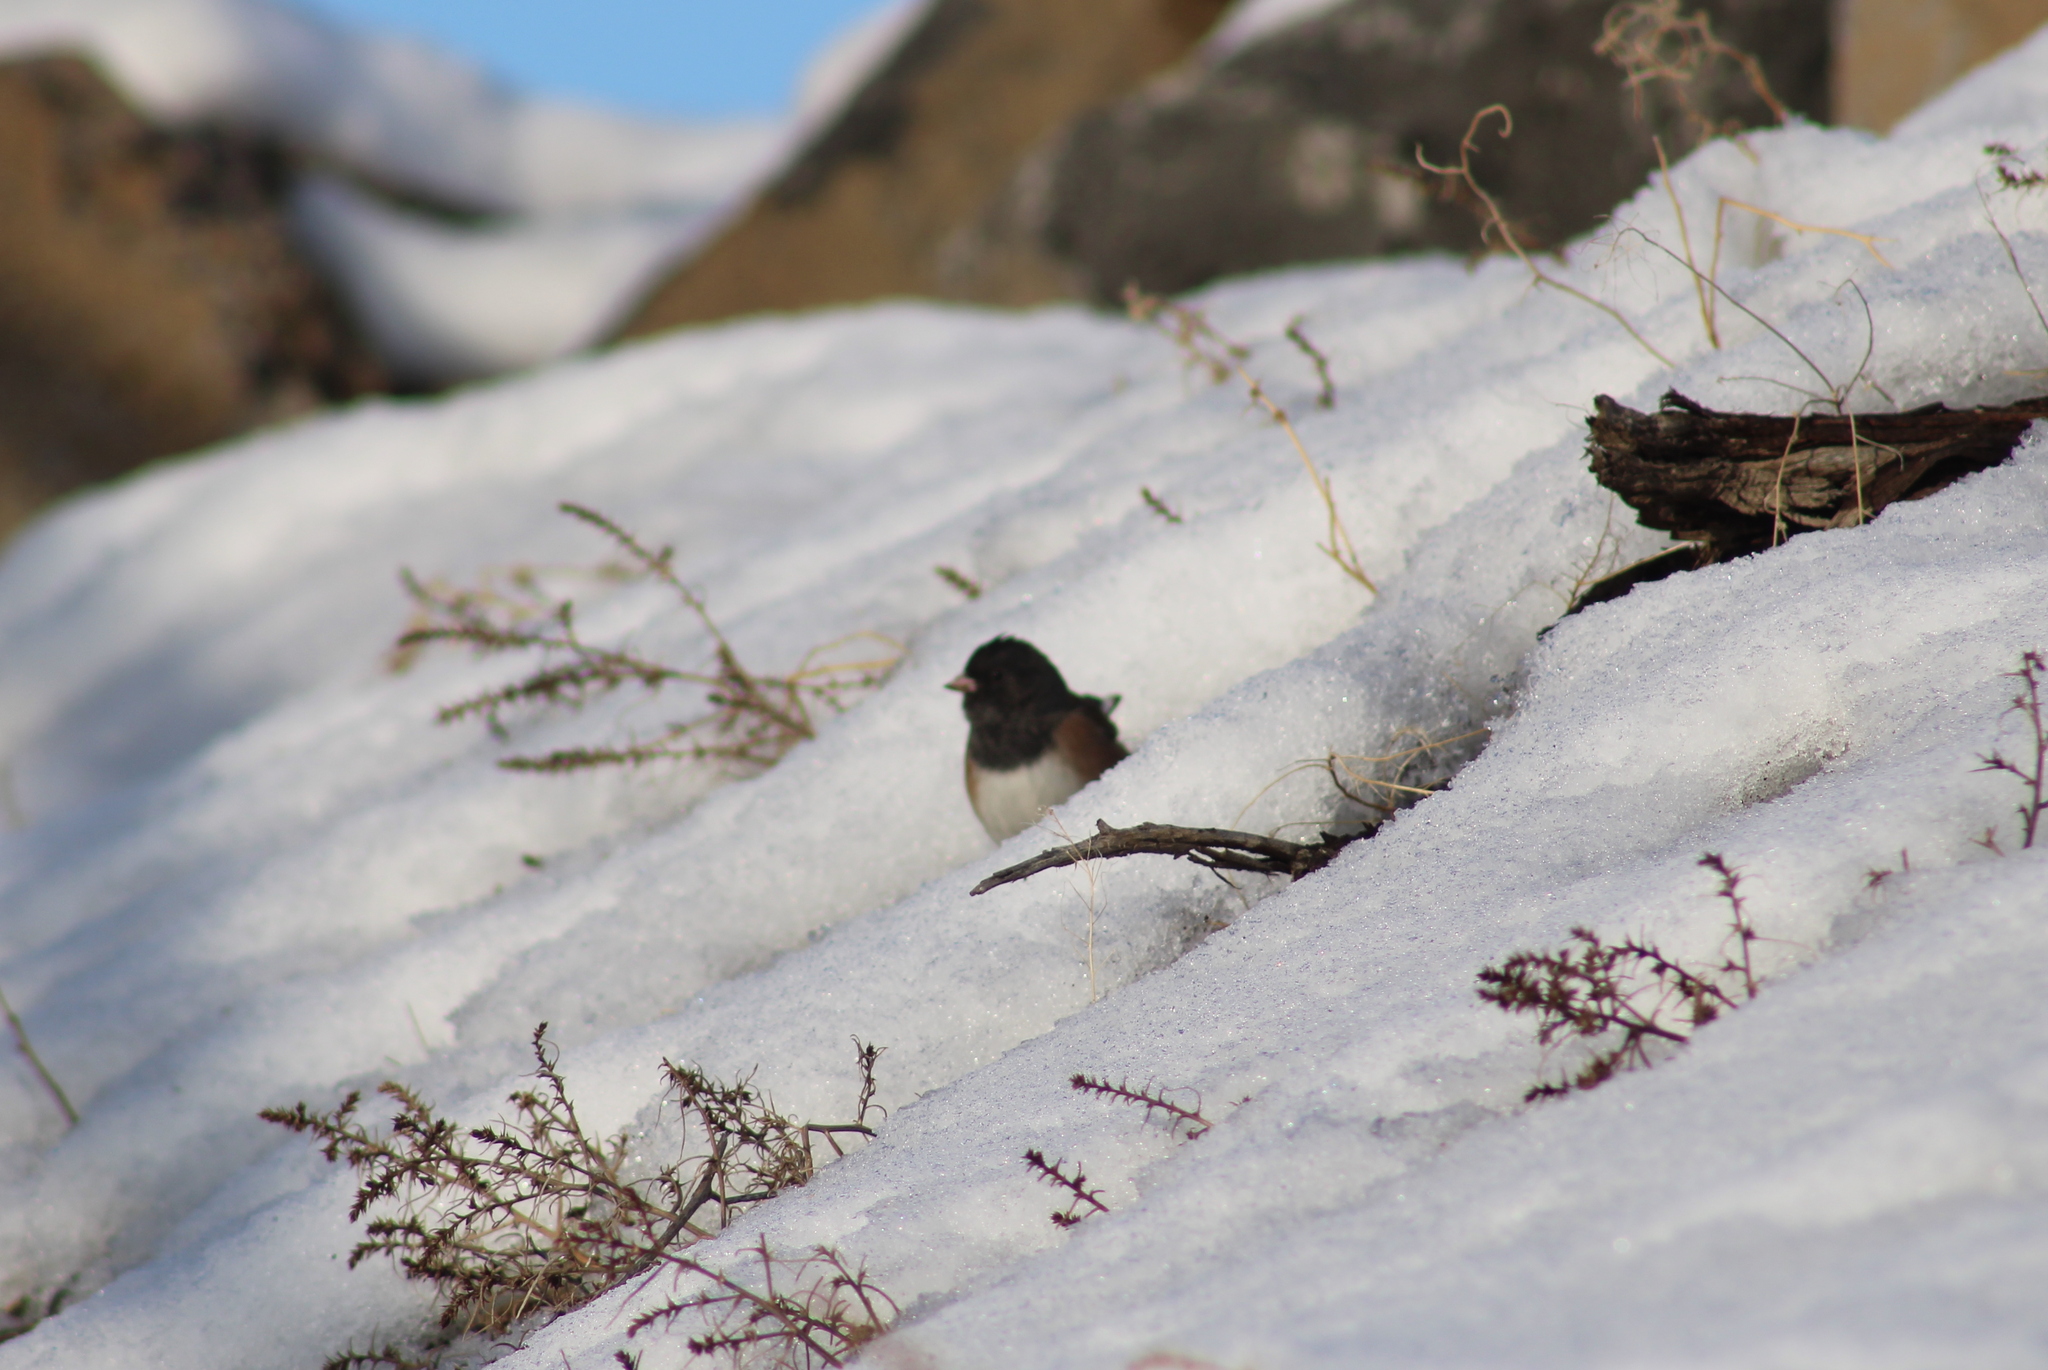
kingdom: Animalia
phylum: Chordata
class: Aves
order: Passeriformes
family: Passerellidae
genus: Junco
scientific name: Junco hyemalis
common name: Dark-eyed junco
